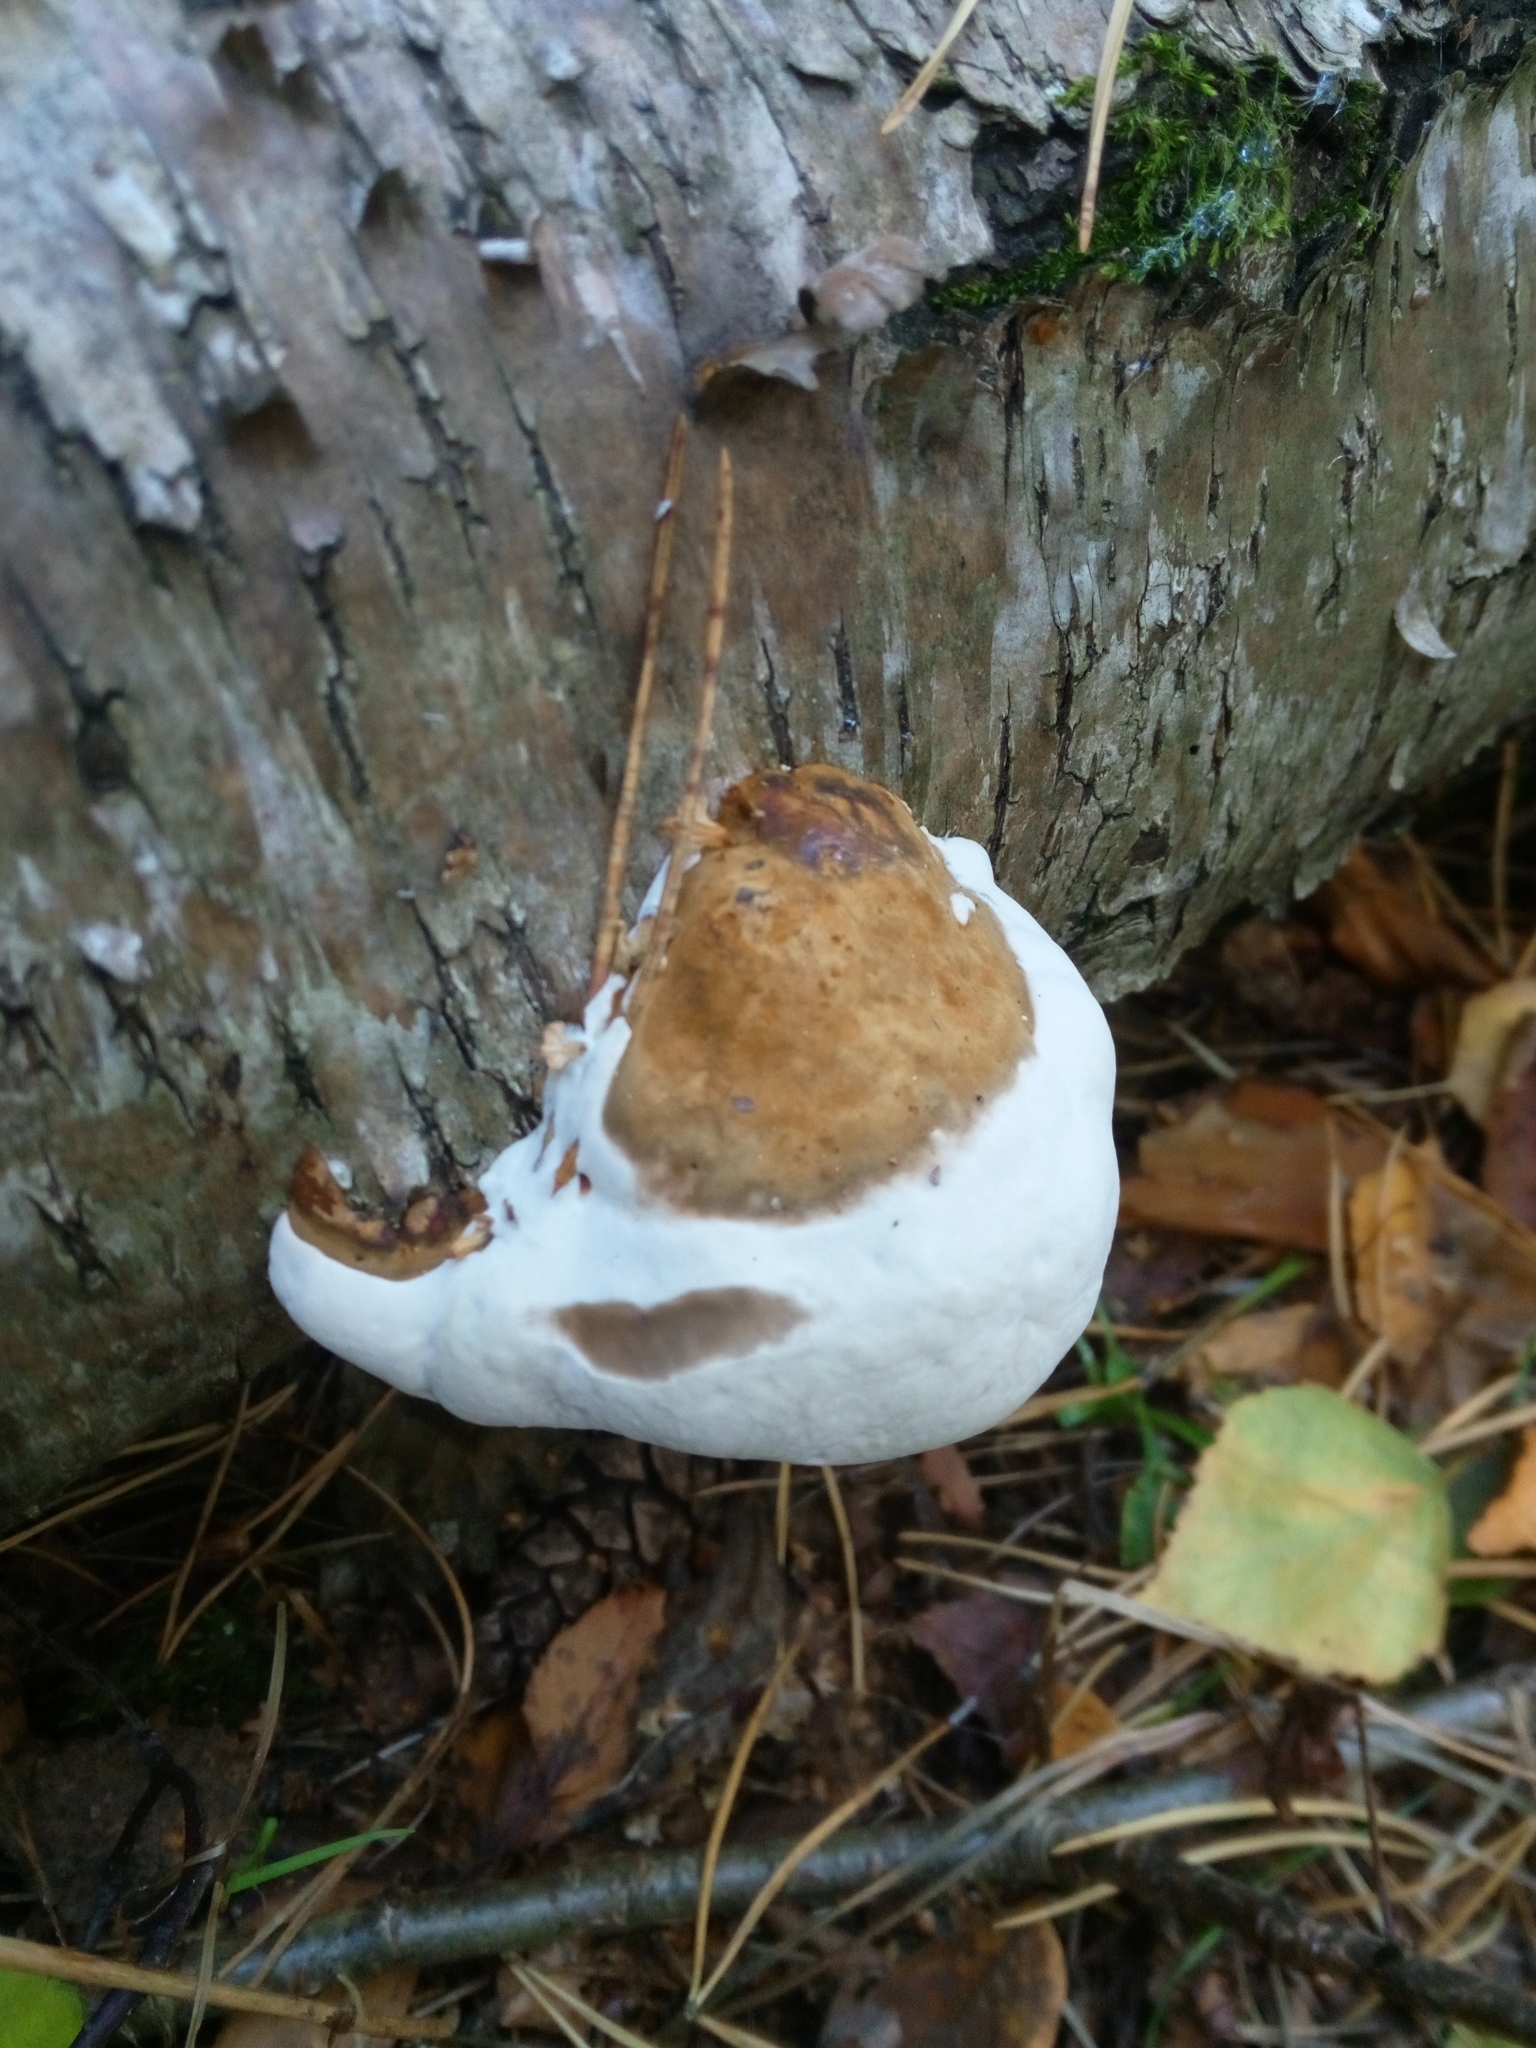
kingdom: Fungi
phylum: Basidiomycota
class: Agaricomycetes
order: Polyporales
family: Fomitopsidaceae
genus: Fomitopsis
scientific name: Fomitopsis pinicola
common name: Red-belted bracket
